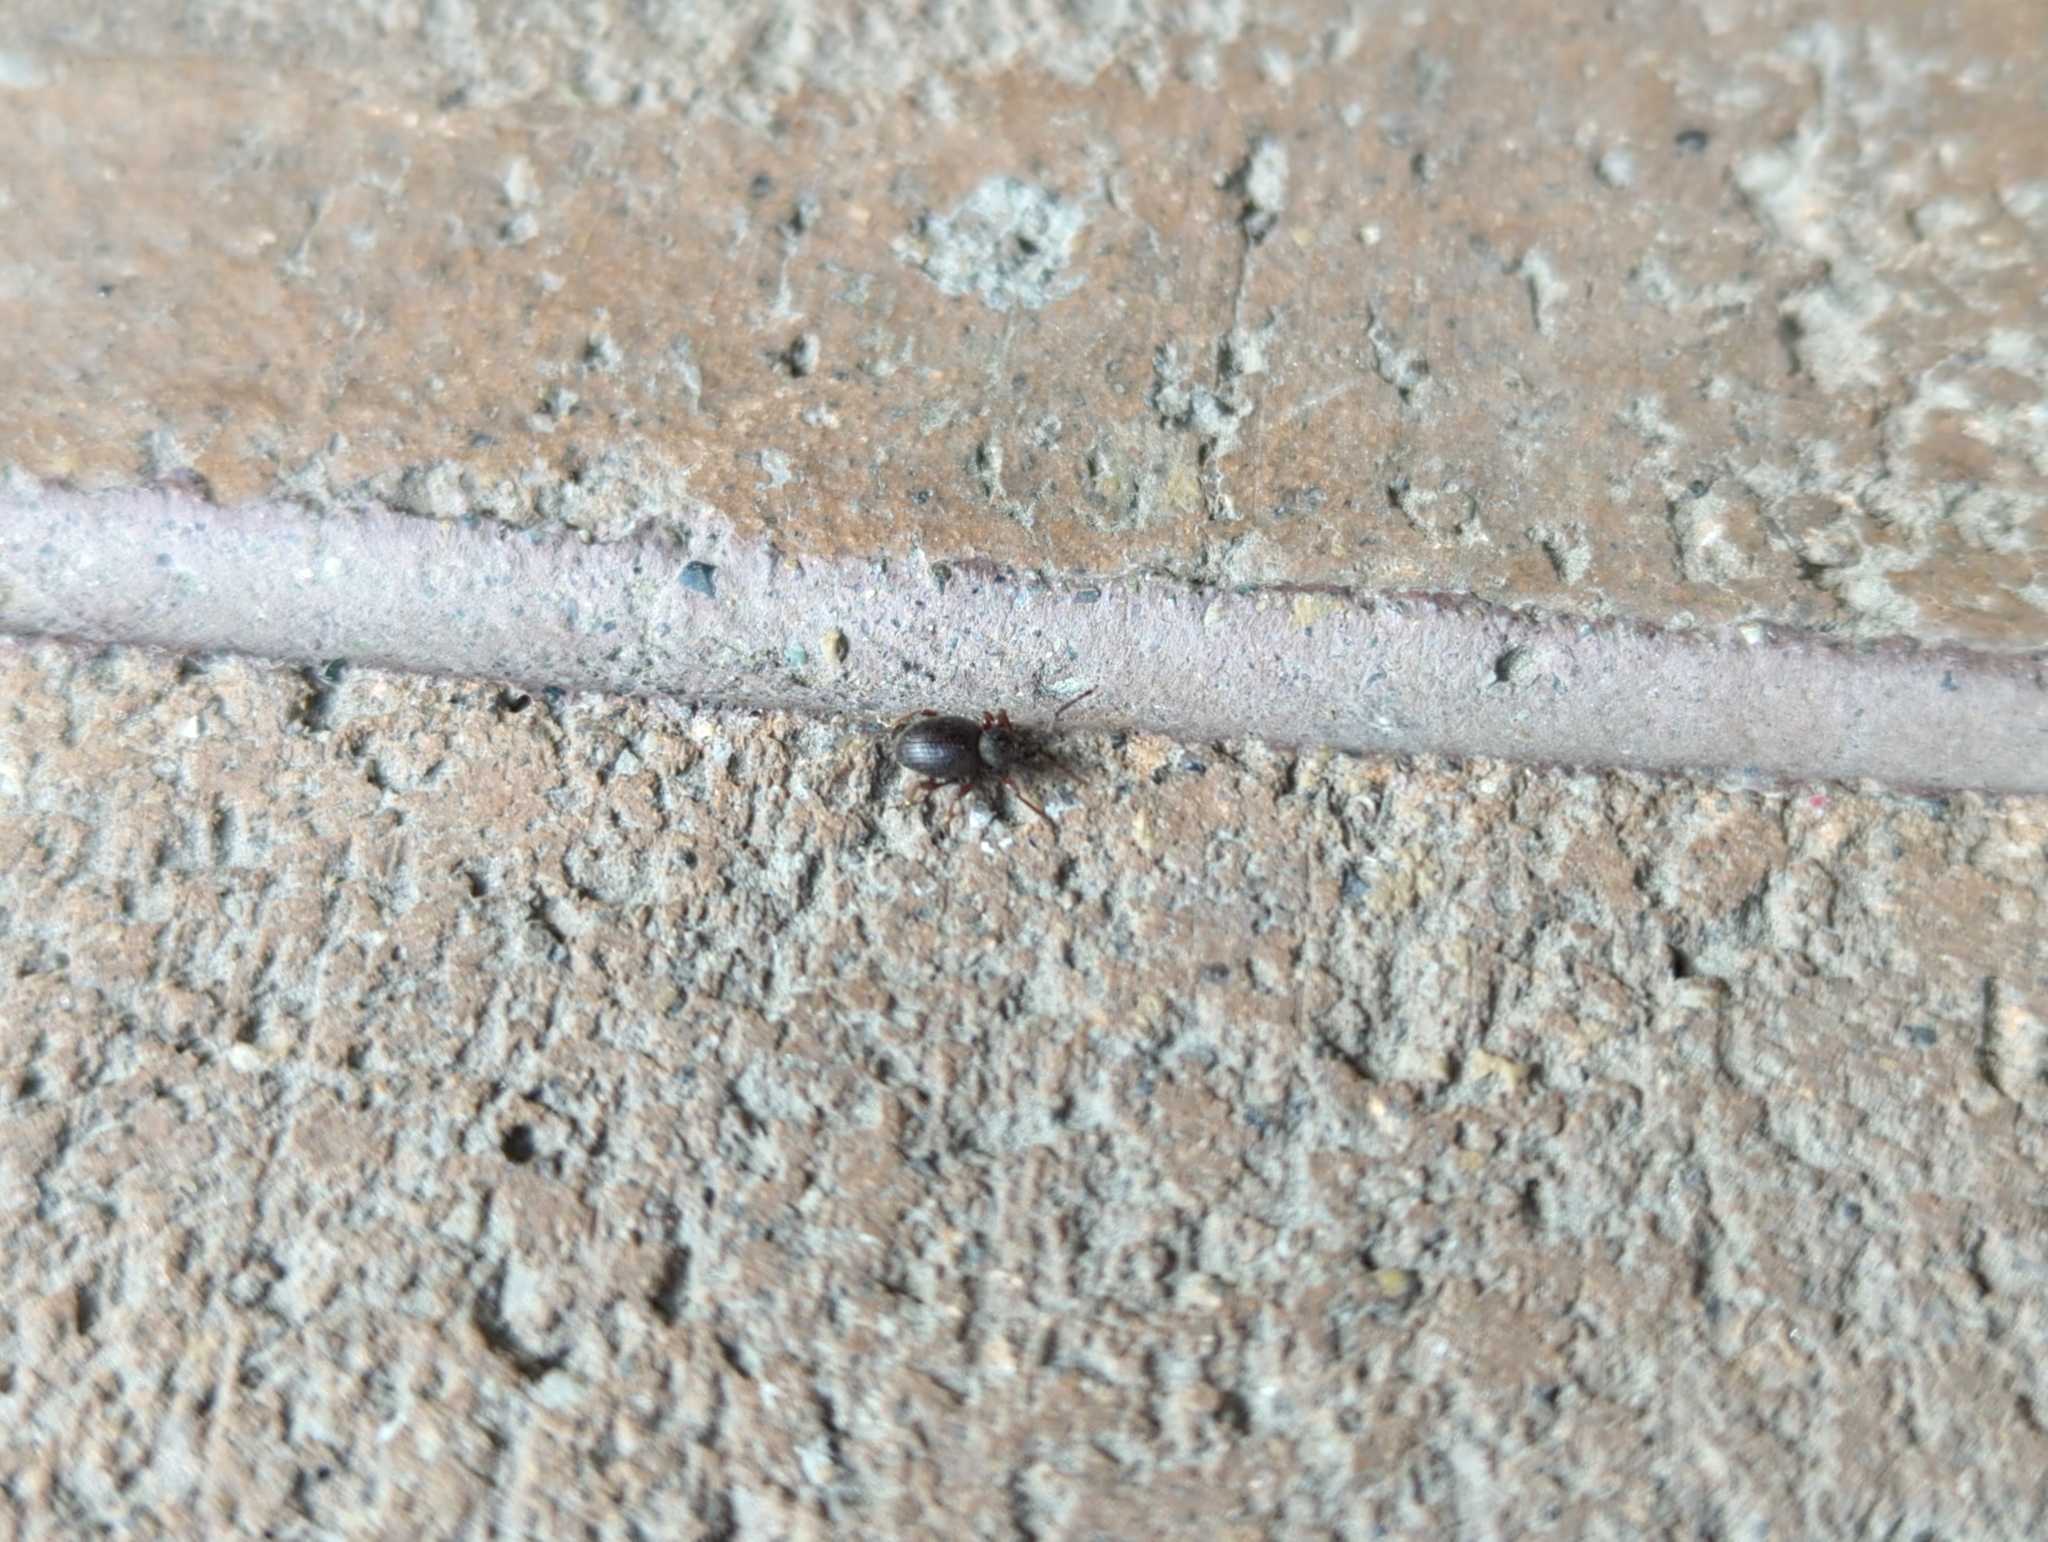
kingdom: Animalia
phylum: Arthropoda
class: Insecta
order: Coleoptera
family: Curculionidae
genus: Otiorhynchus
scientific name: Otiorhynchus ovatus
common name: Strawberry root weevil
